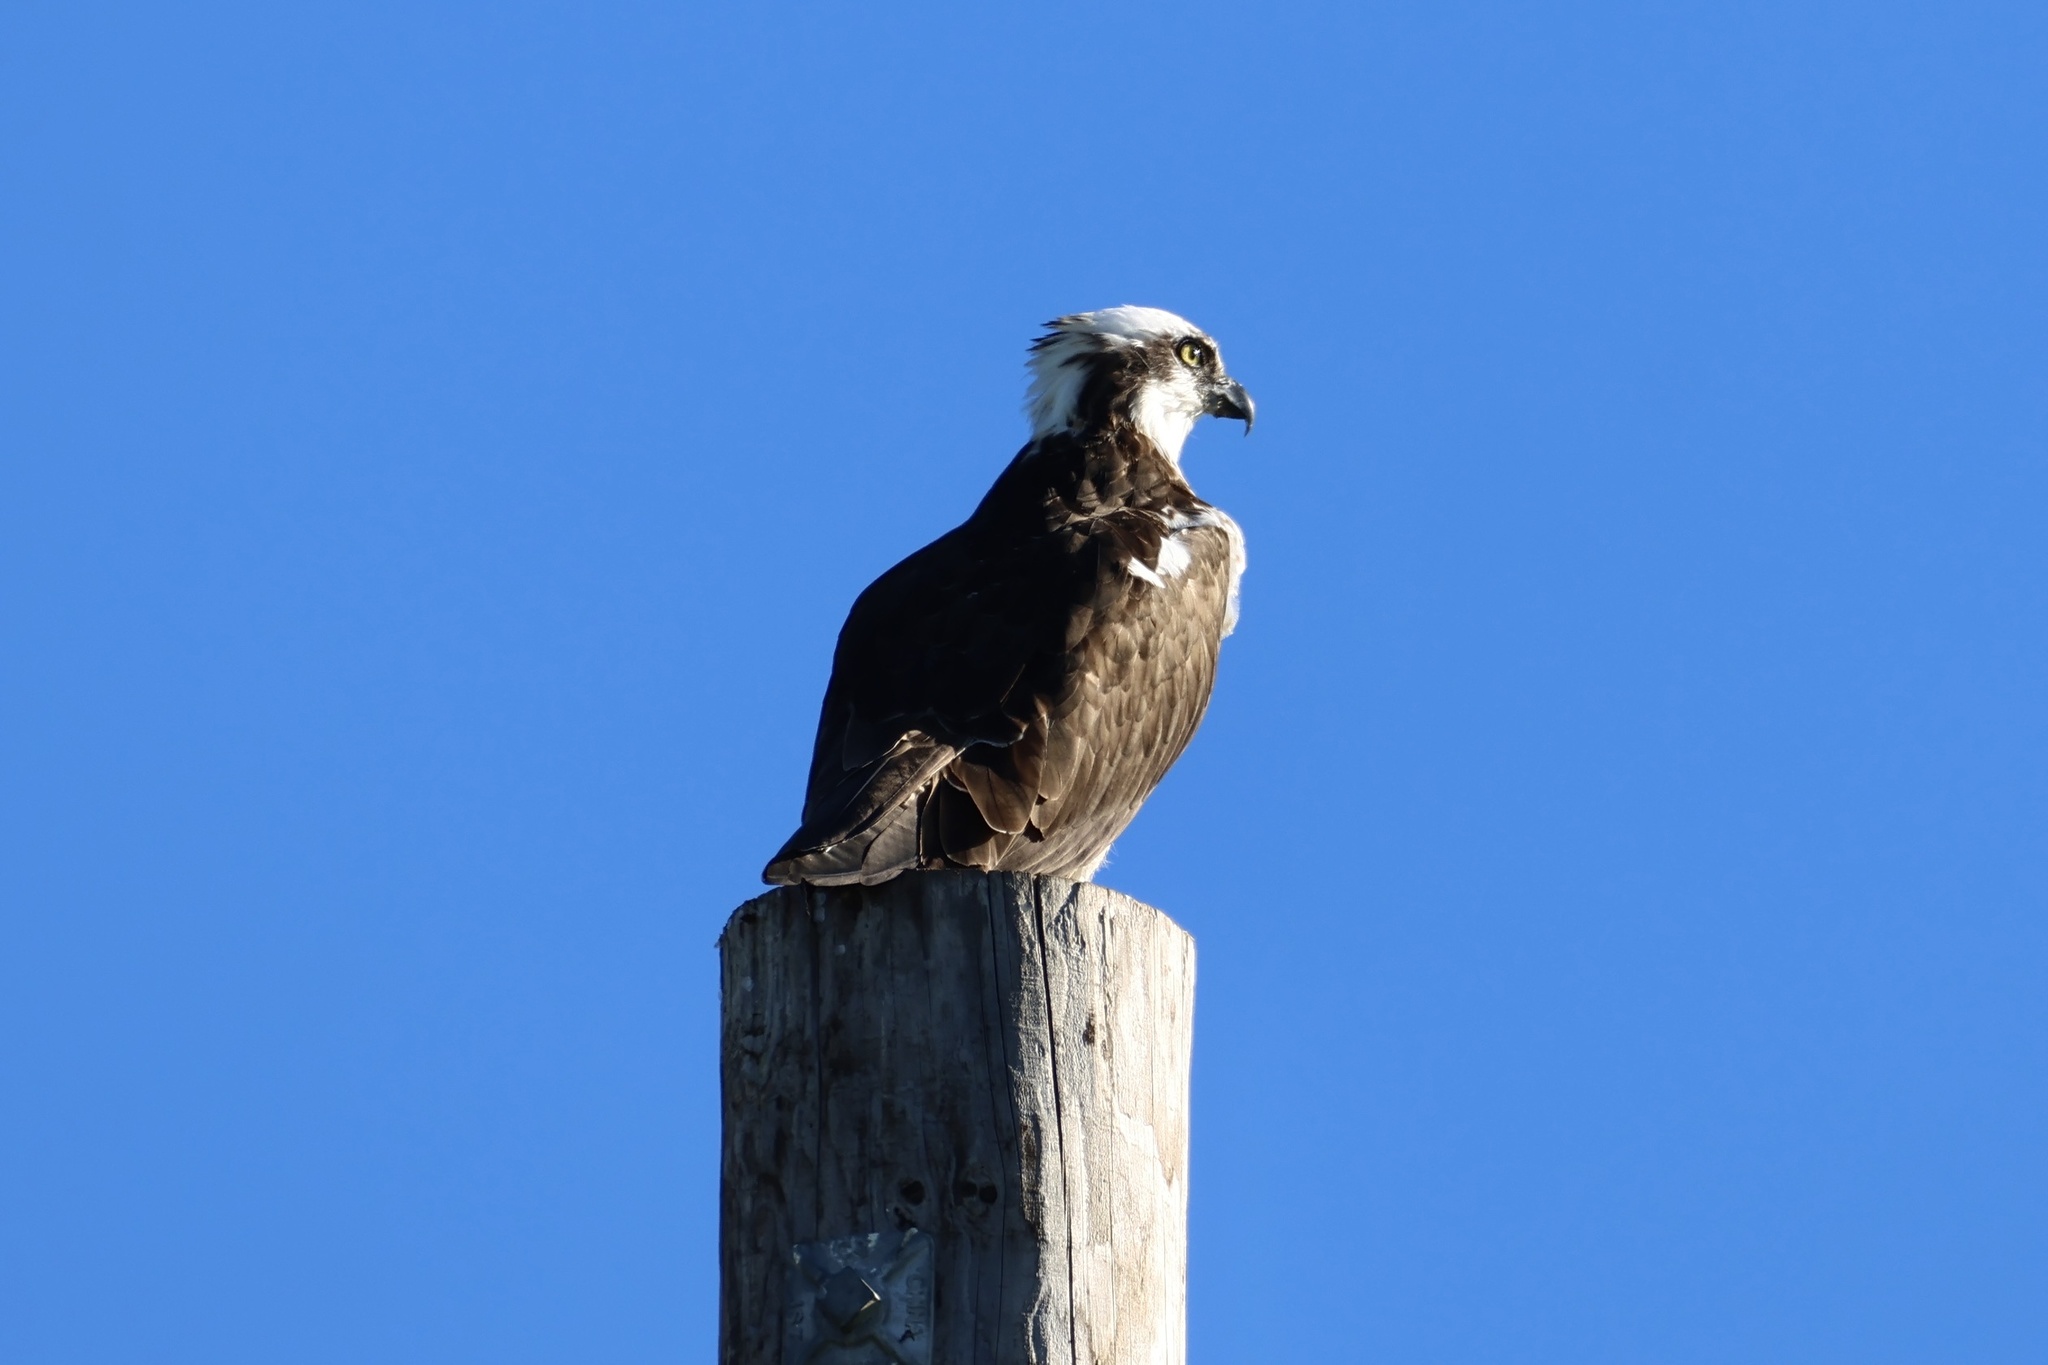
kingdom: Animalia
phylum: Chordata
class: Aves
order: Accipitriformes
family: Pandionidae
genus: Pandion
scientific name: Pandion haliaetus
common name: Osprey
